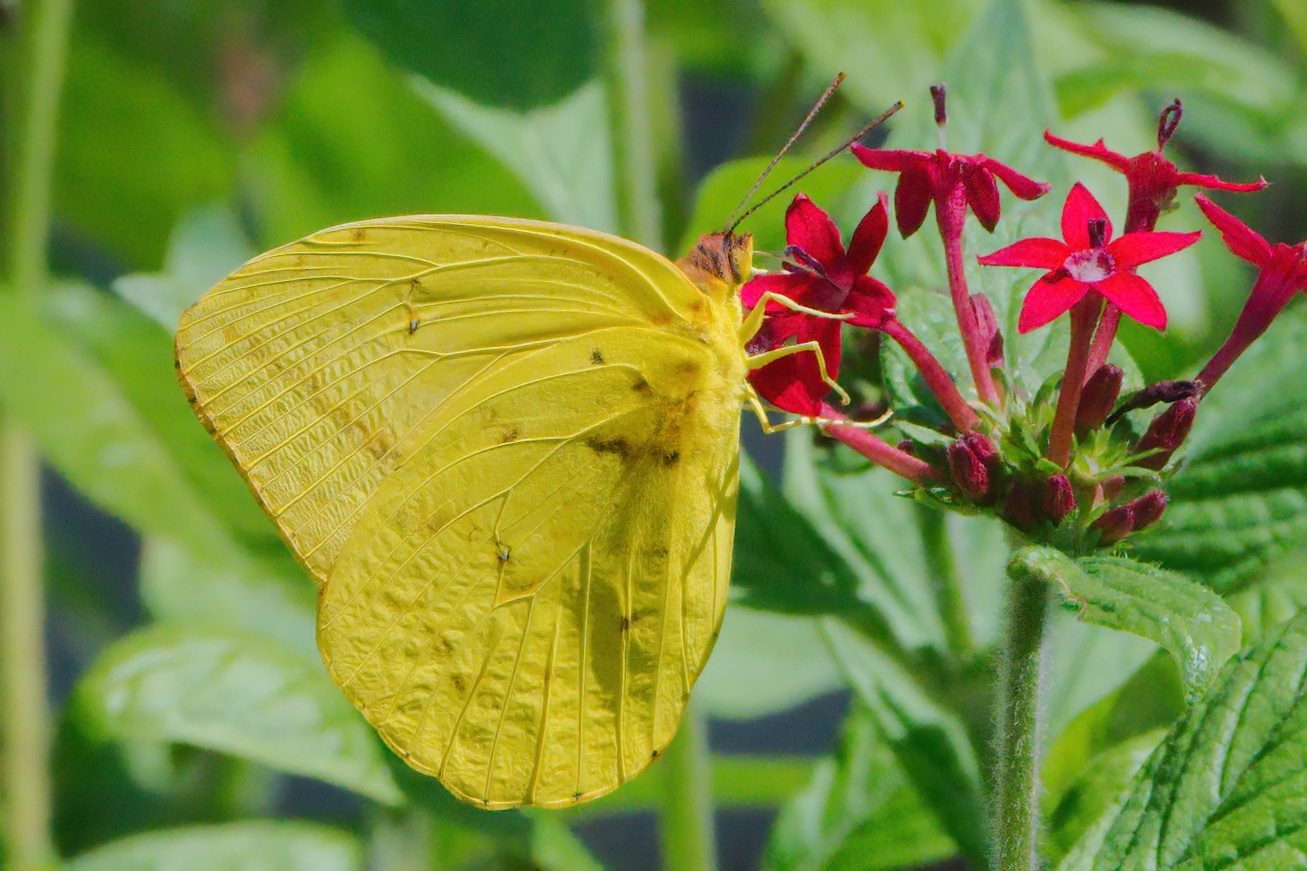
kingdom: Animalia
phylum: Arthropoda
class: Insecta
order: Lepidoptera
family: Pieridae
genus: Phoebis
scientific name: Phoebis agarithe
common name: Large orange sulphur
